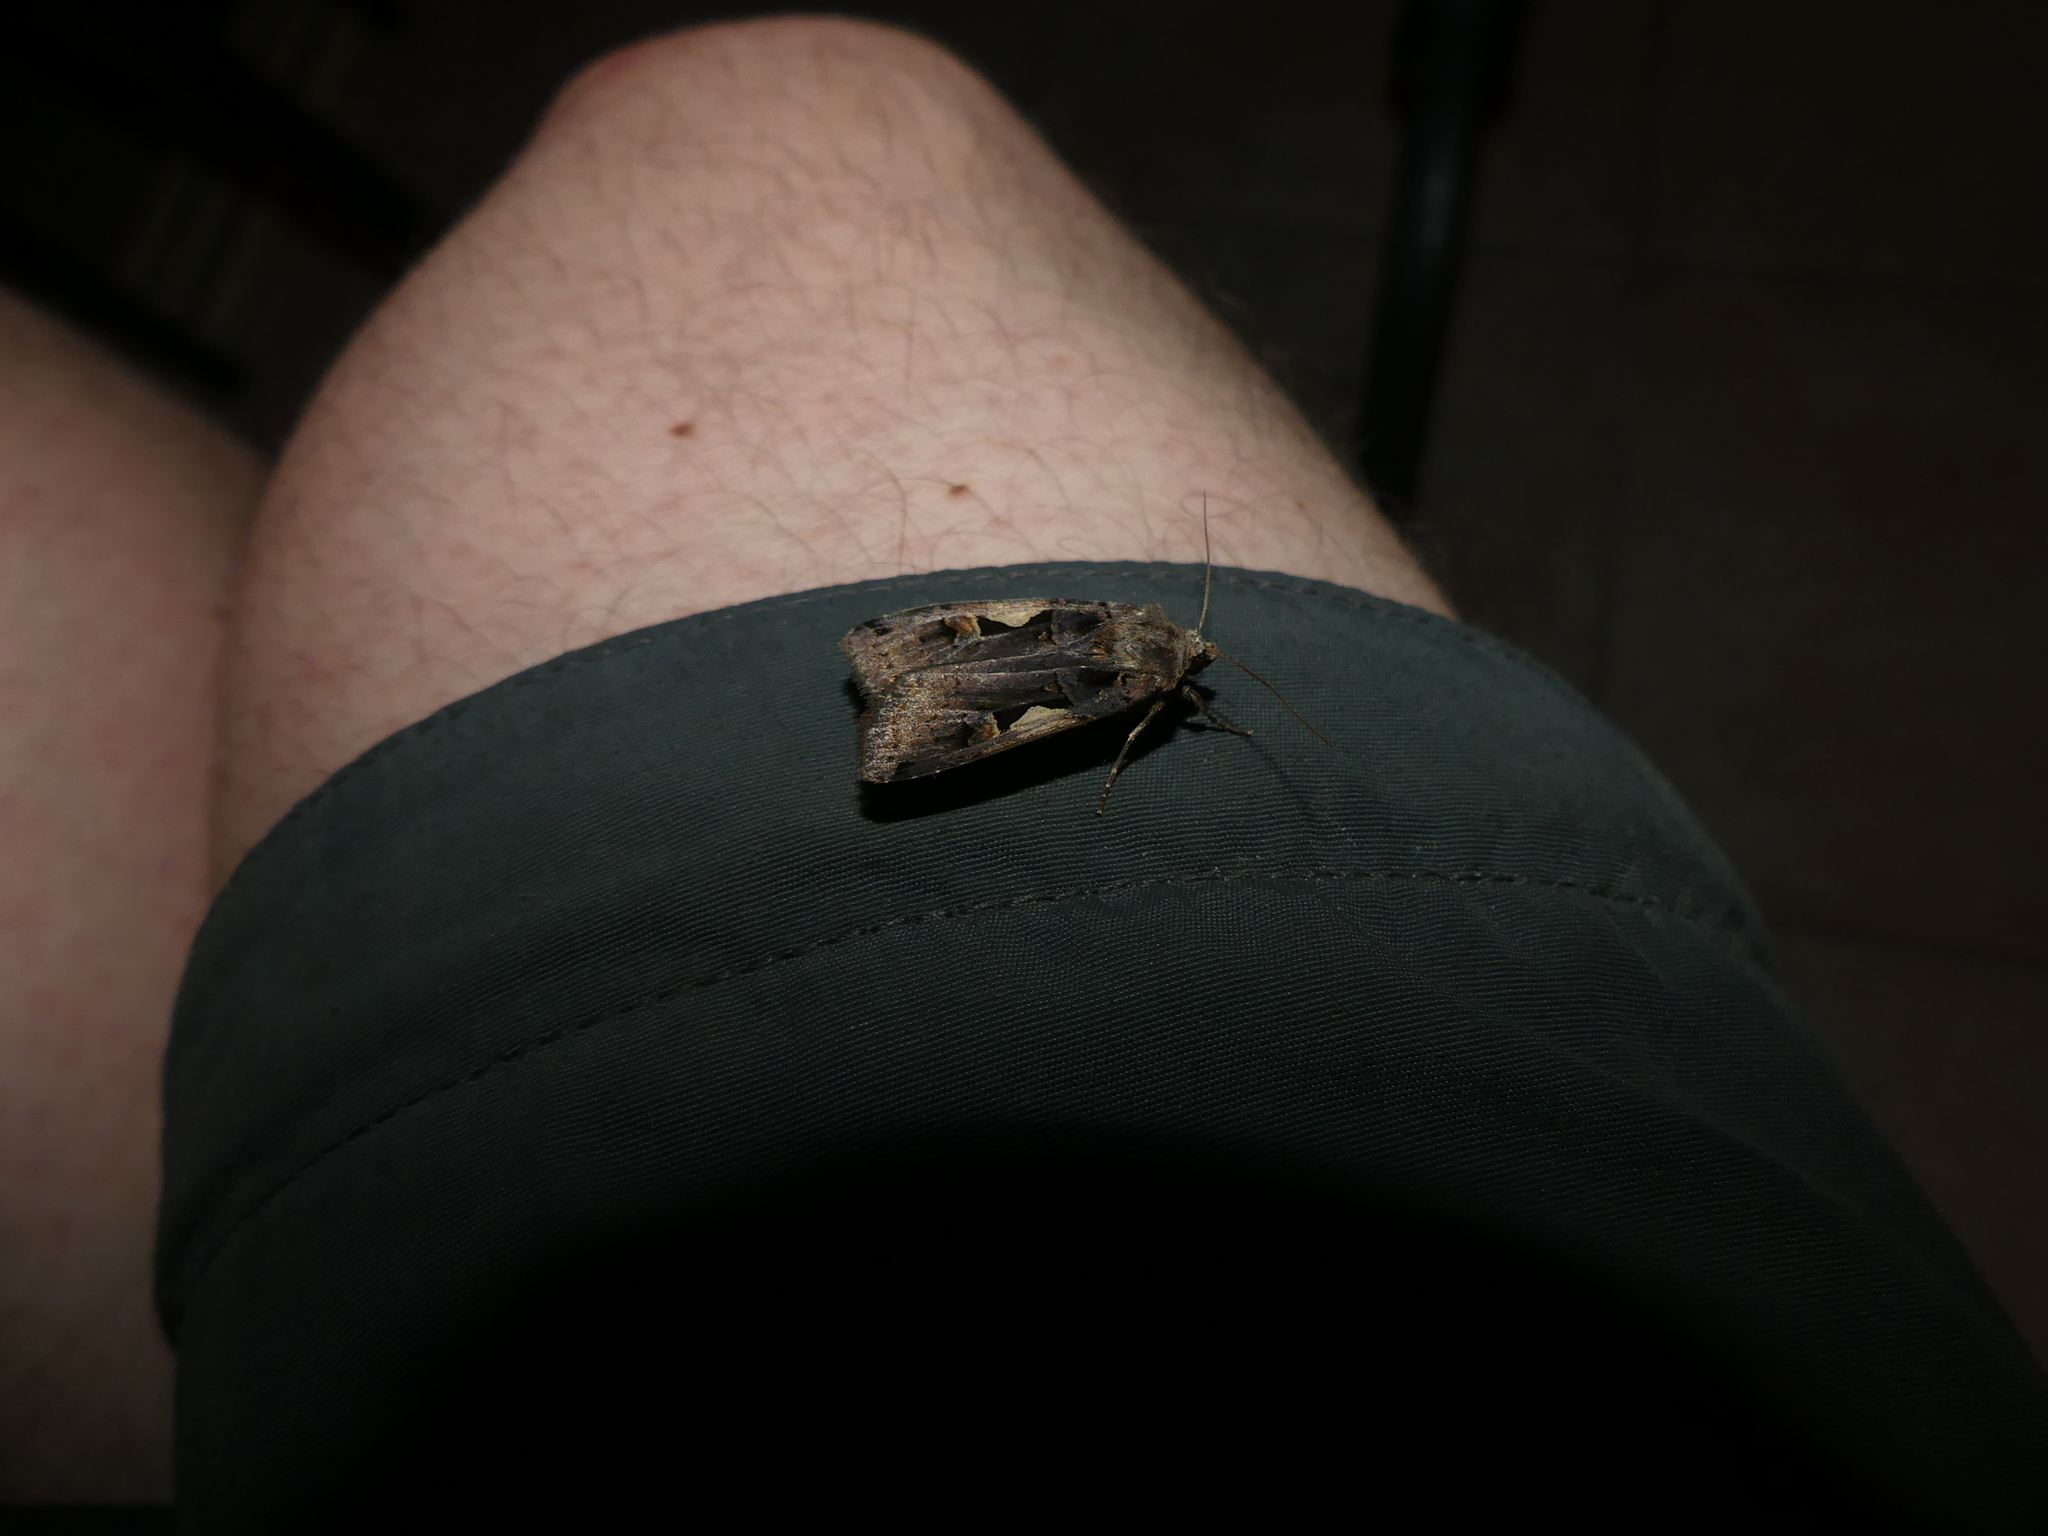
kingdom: Animalia
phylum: Arthropoda
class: Insecta
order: Lepidoptera
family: Noctuidae
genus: Xestia
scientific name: Xestia c-nigrum
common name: Setaceous hebrew character
